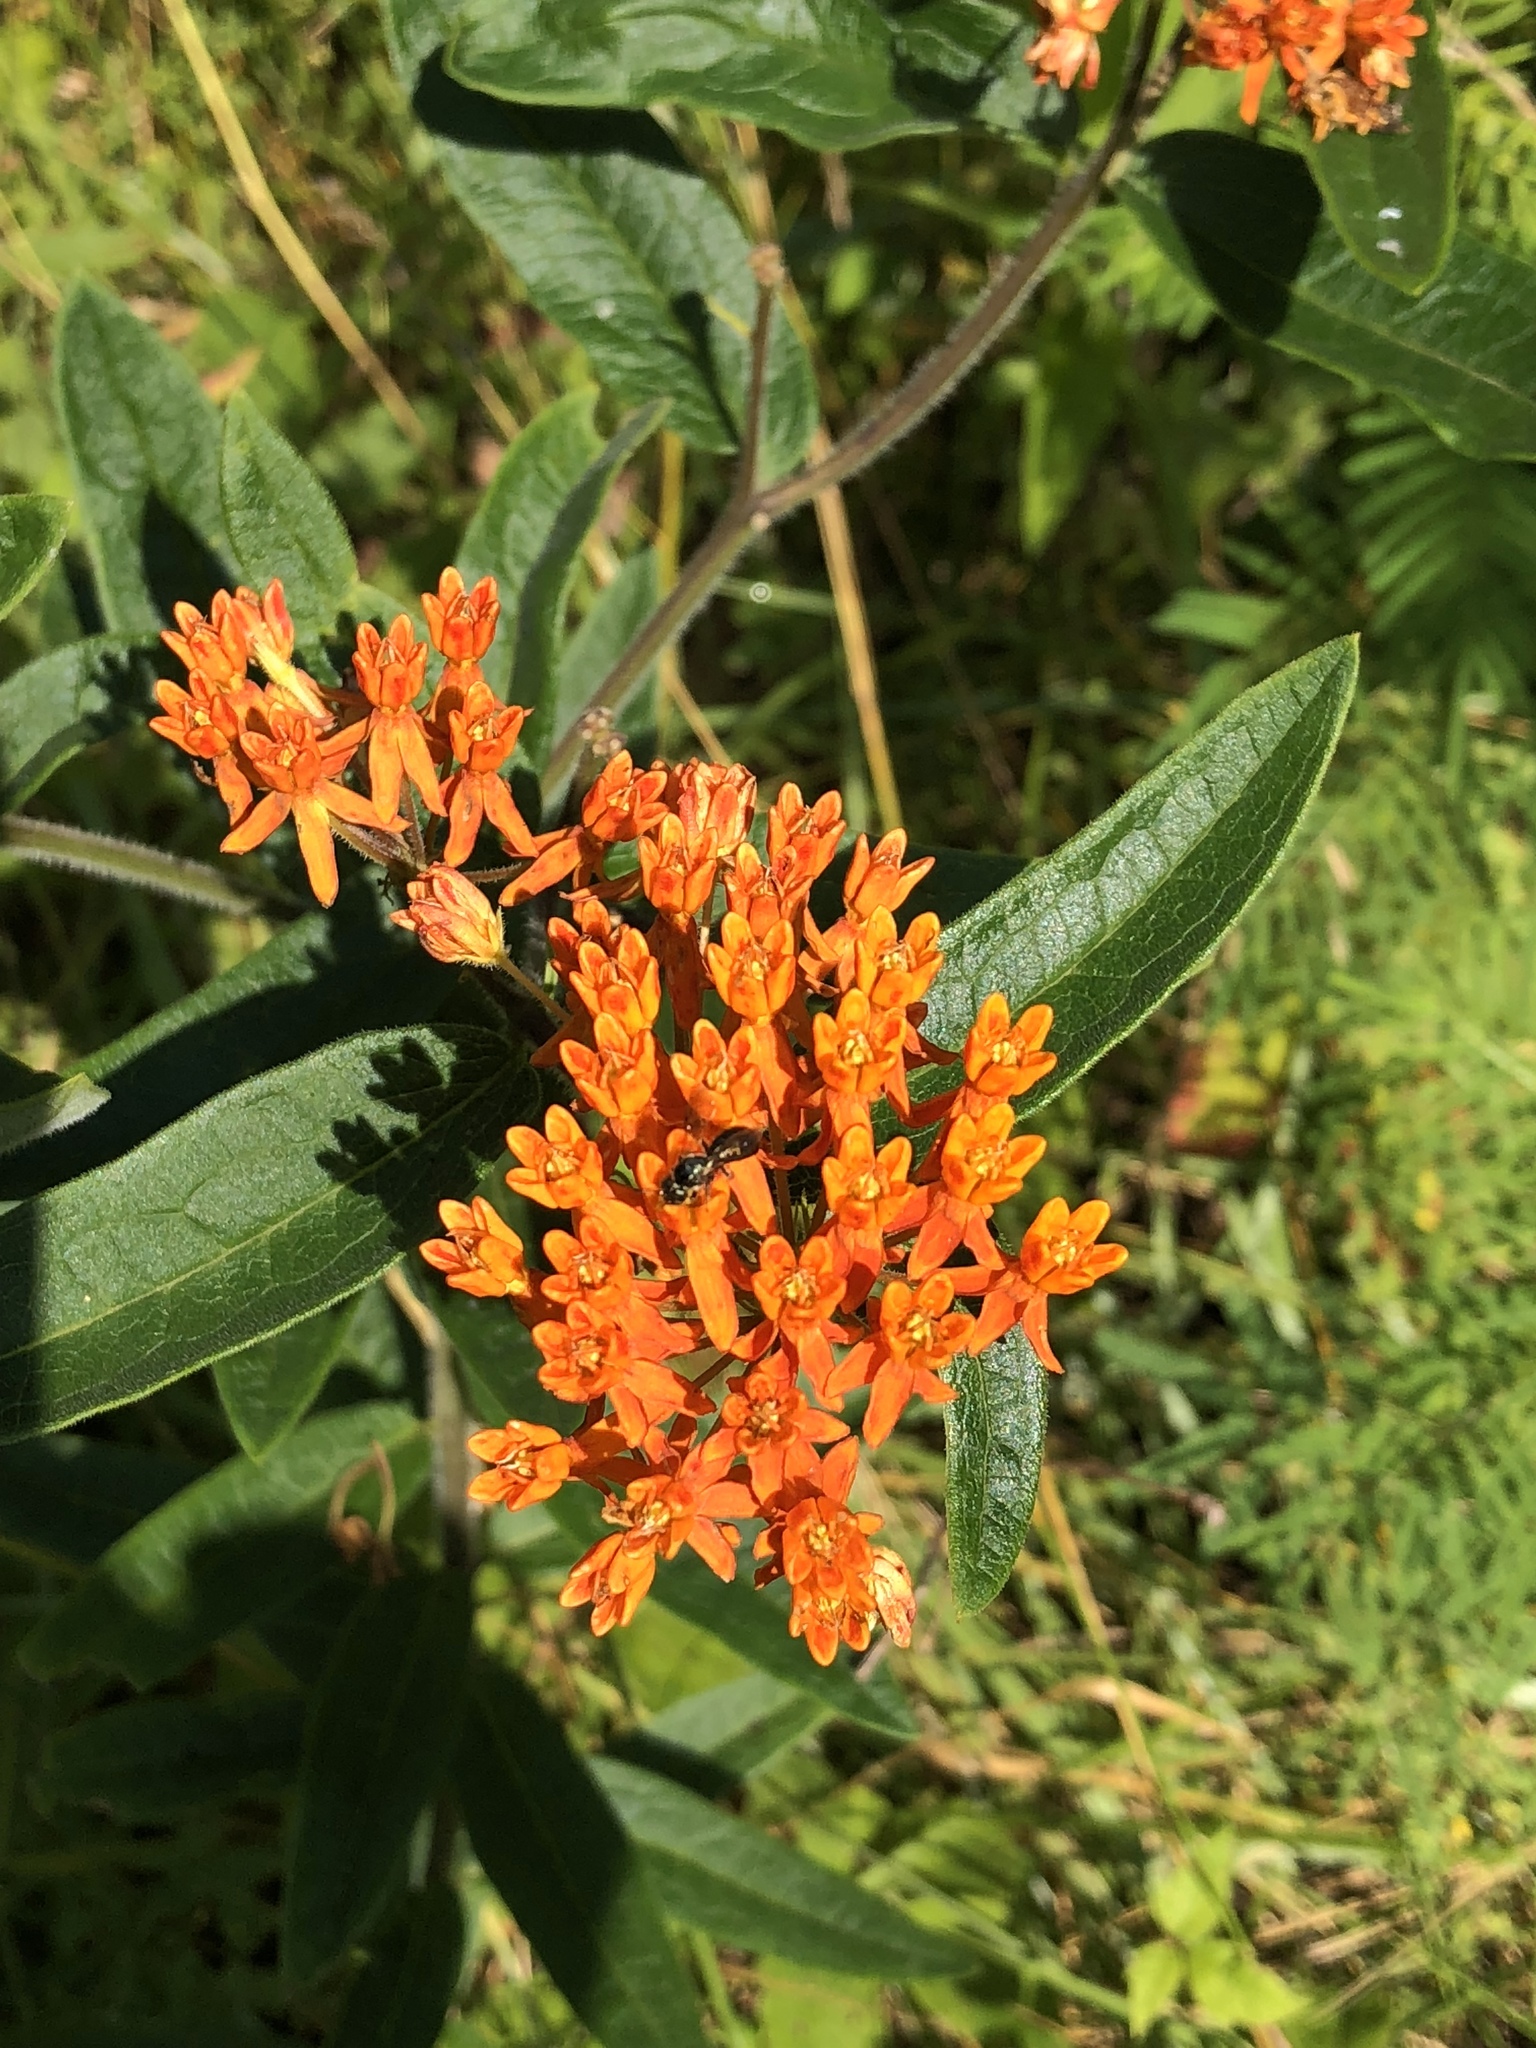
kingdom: Plantae
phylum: Tracheophyta
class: Magnoliopsida
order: Gentianales
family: Apocynaceae
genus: Asclepias
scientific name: Asclepias tuberosa
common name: Butterfly milkweed
